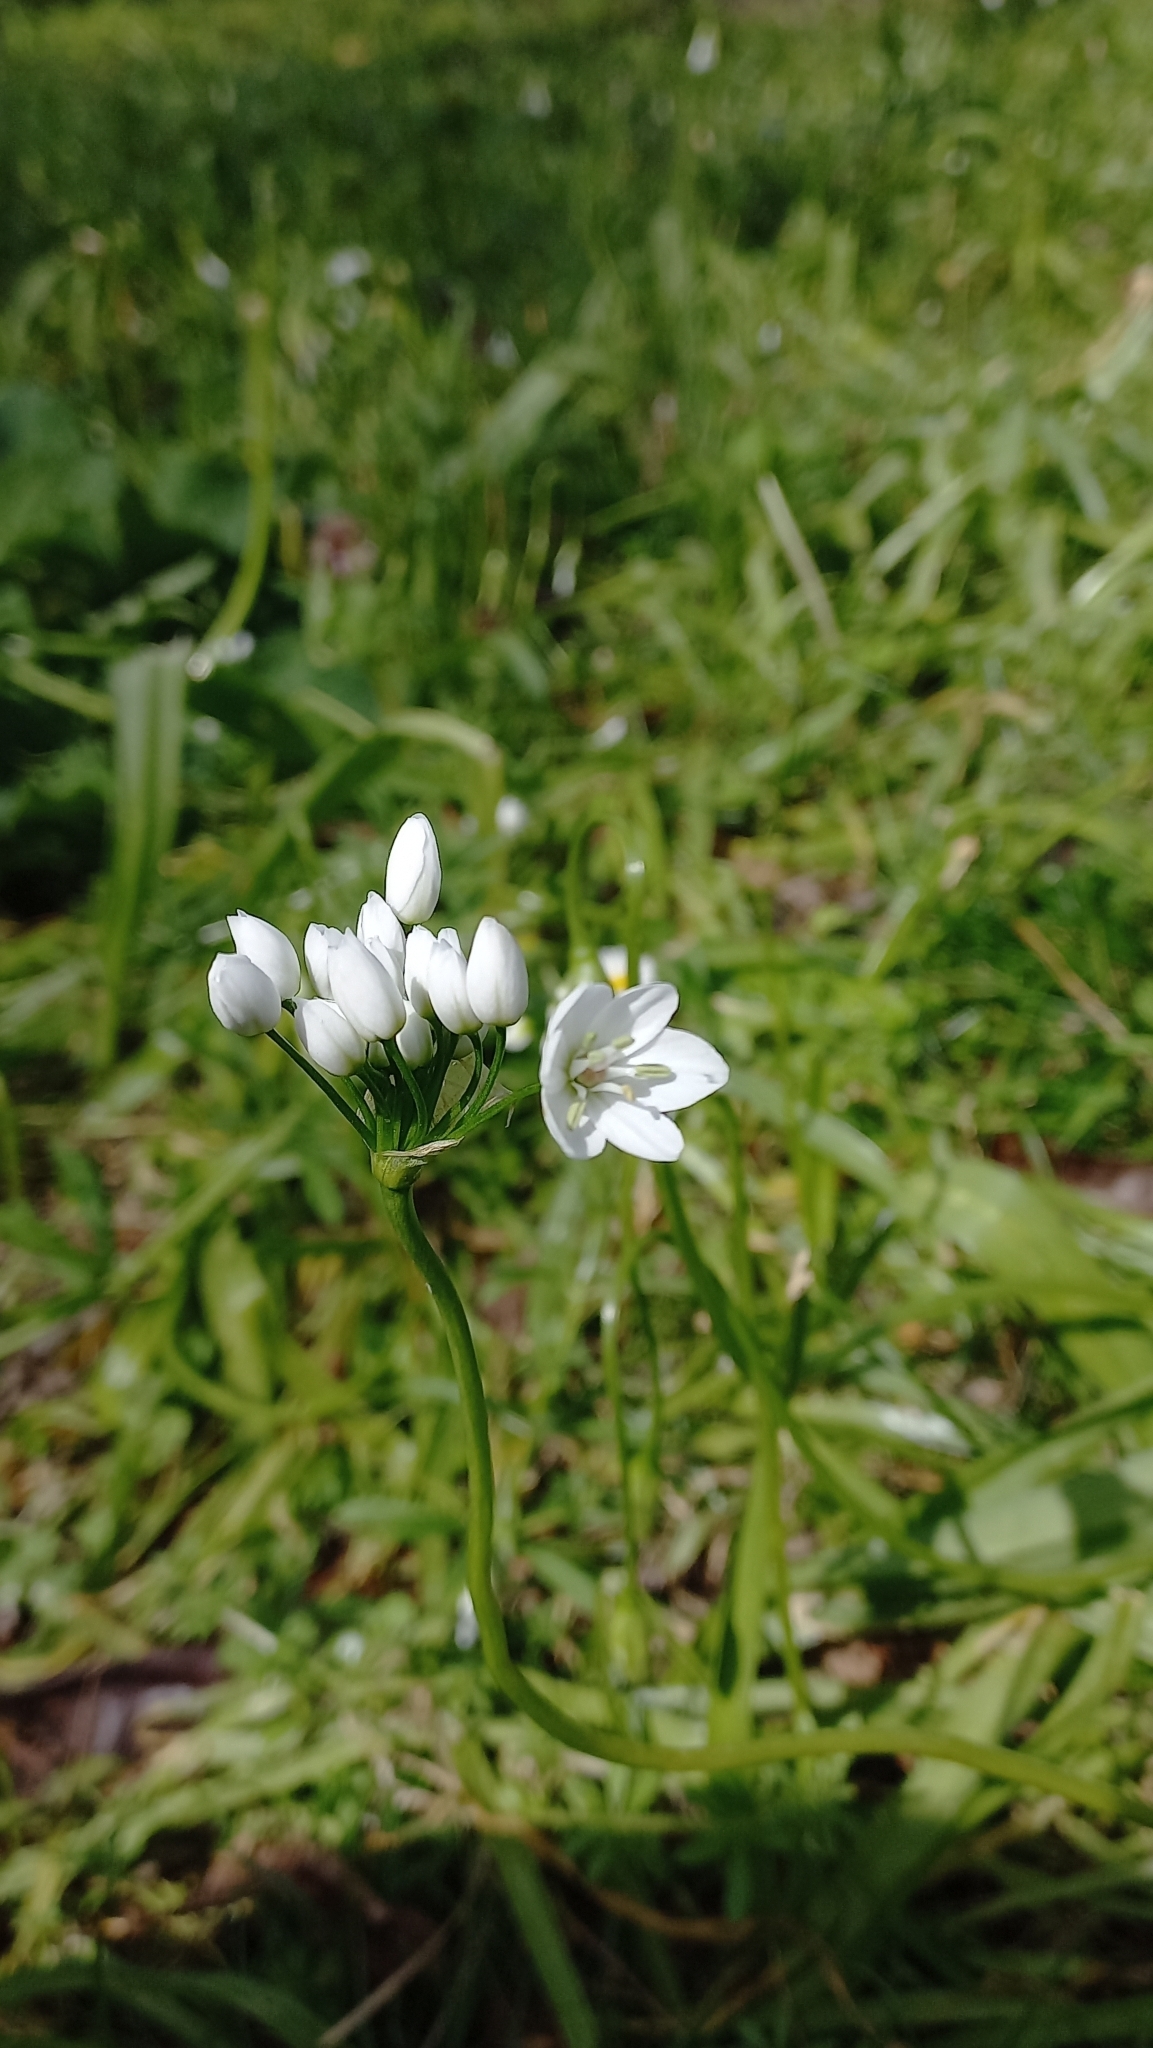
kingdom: Plantae
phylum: Tracheophyta
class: Liliopsida
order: Asparagales
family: Amaryllidaceae
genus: Allium
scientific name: Allium neapolitanum
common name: Neapolitan garlic
